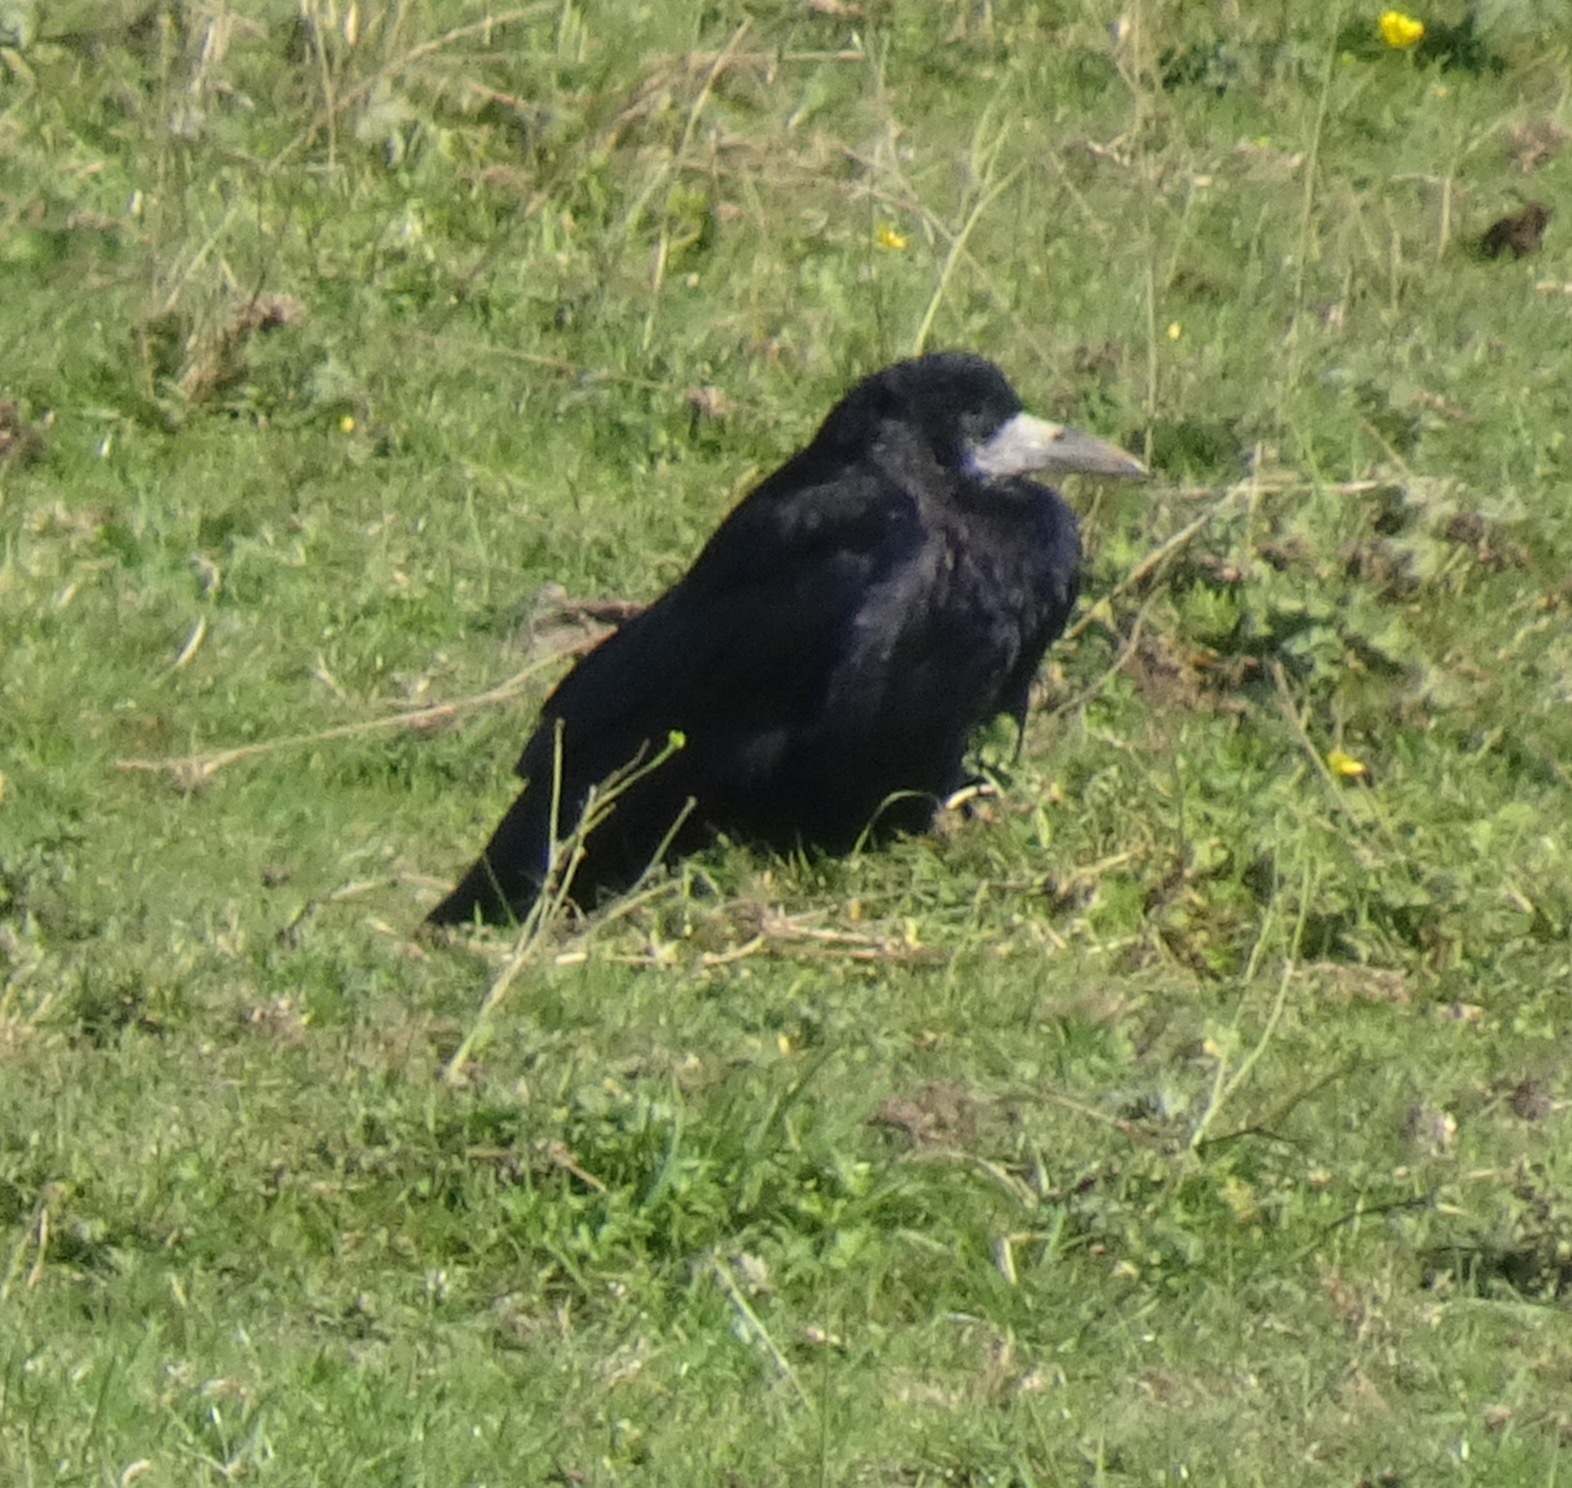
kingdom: Animalia
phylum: Chordata
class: Aves
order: Passeriformes
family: Corvidae
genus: Corvus
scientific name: Corvus frugilegus
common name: Rook
